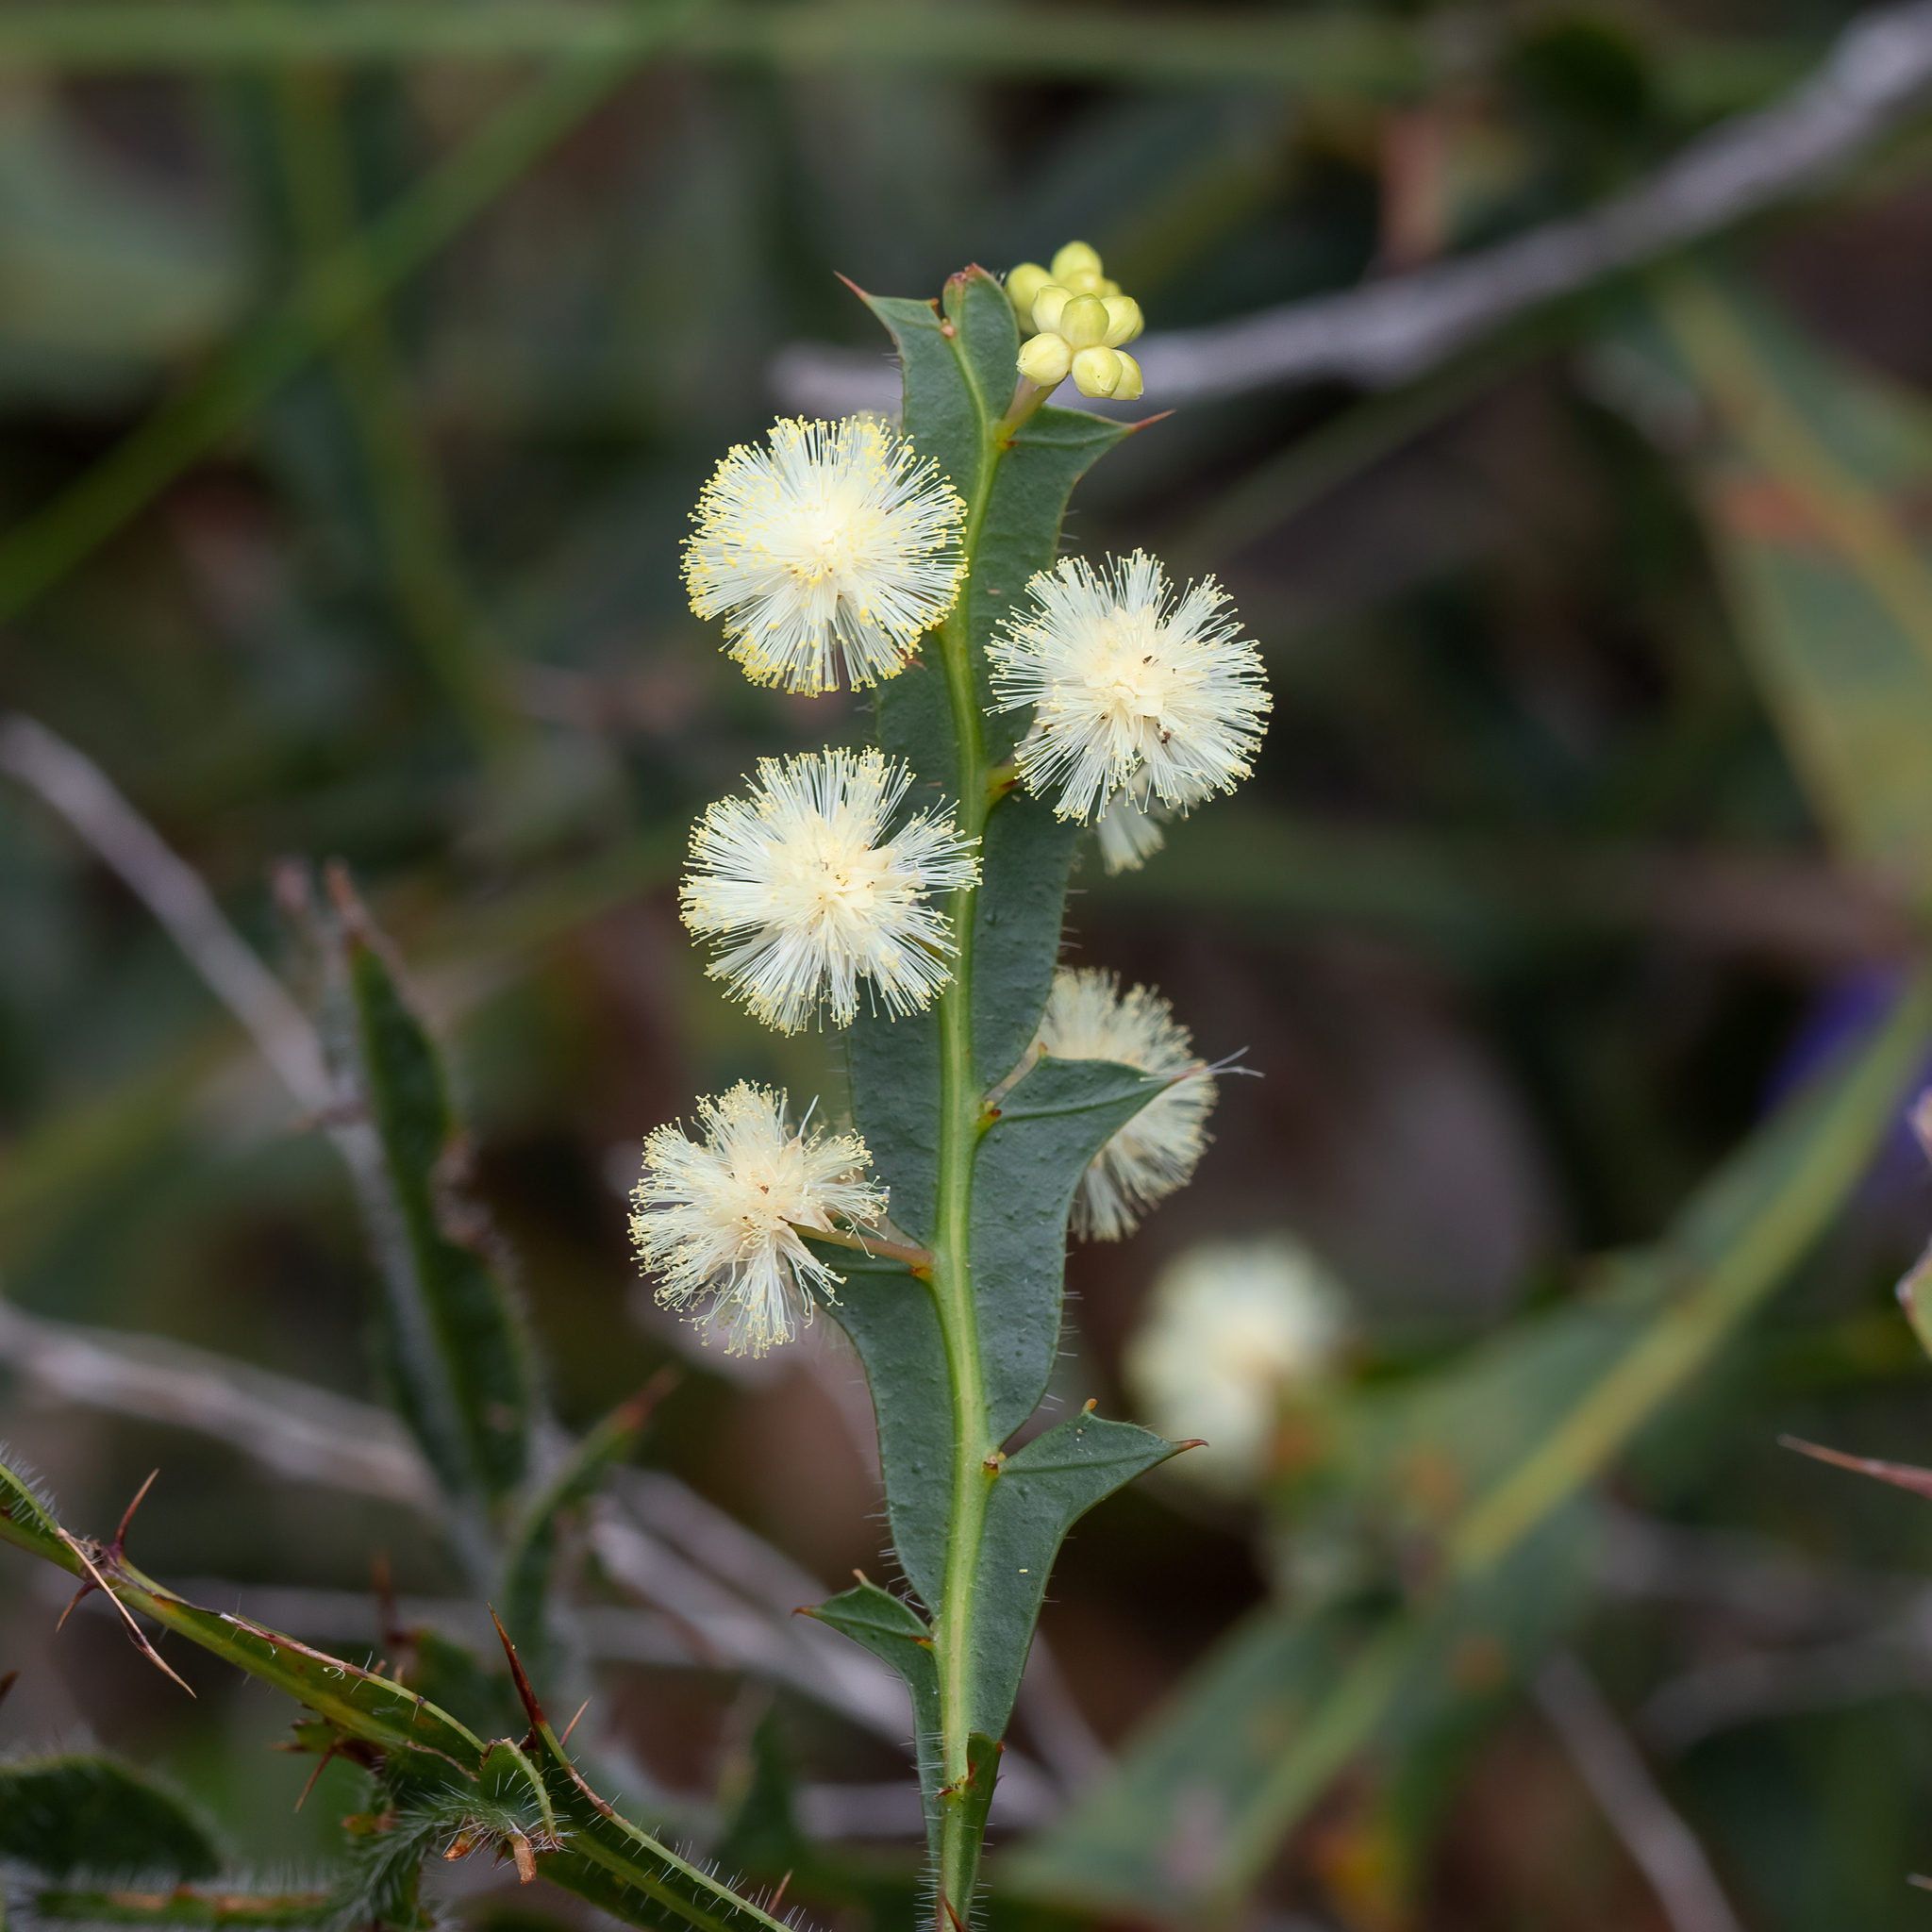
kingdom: Plantae
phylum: Tracheophyta
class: Magnoliopsida
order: Fabales
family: Fabaceae
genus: Acacia
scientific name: Acacia alata
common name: Winged wattle
